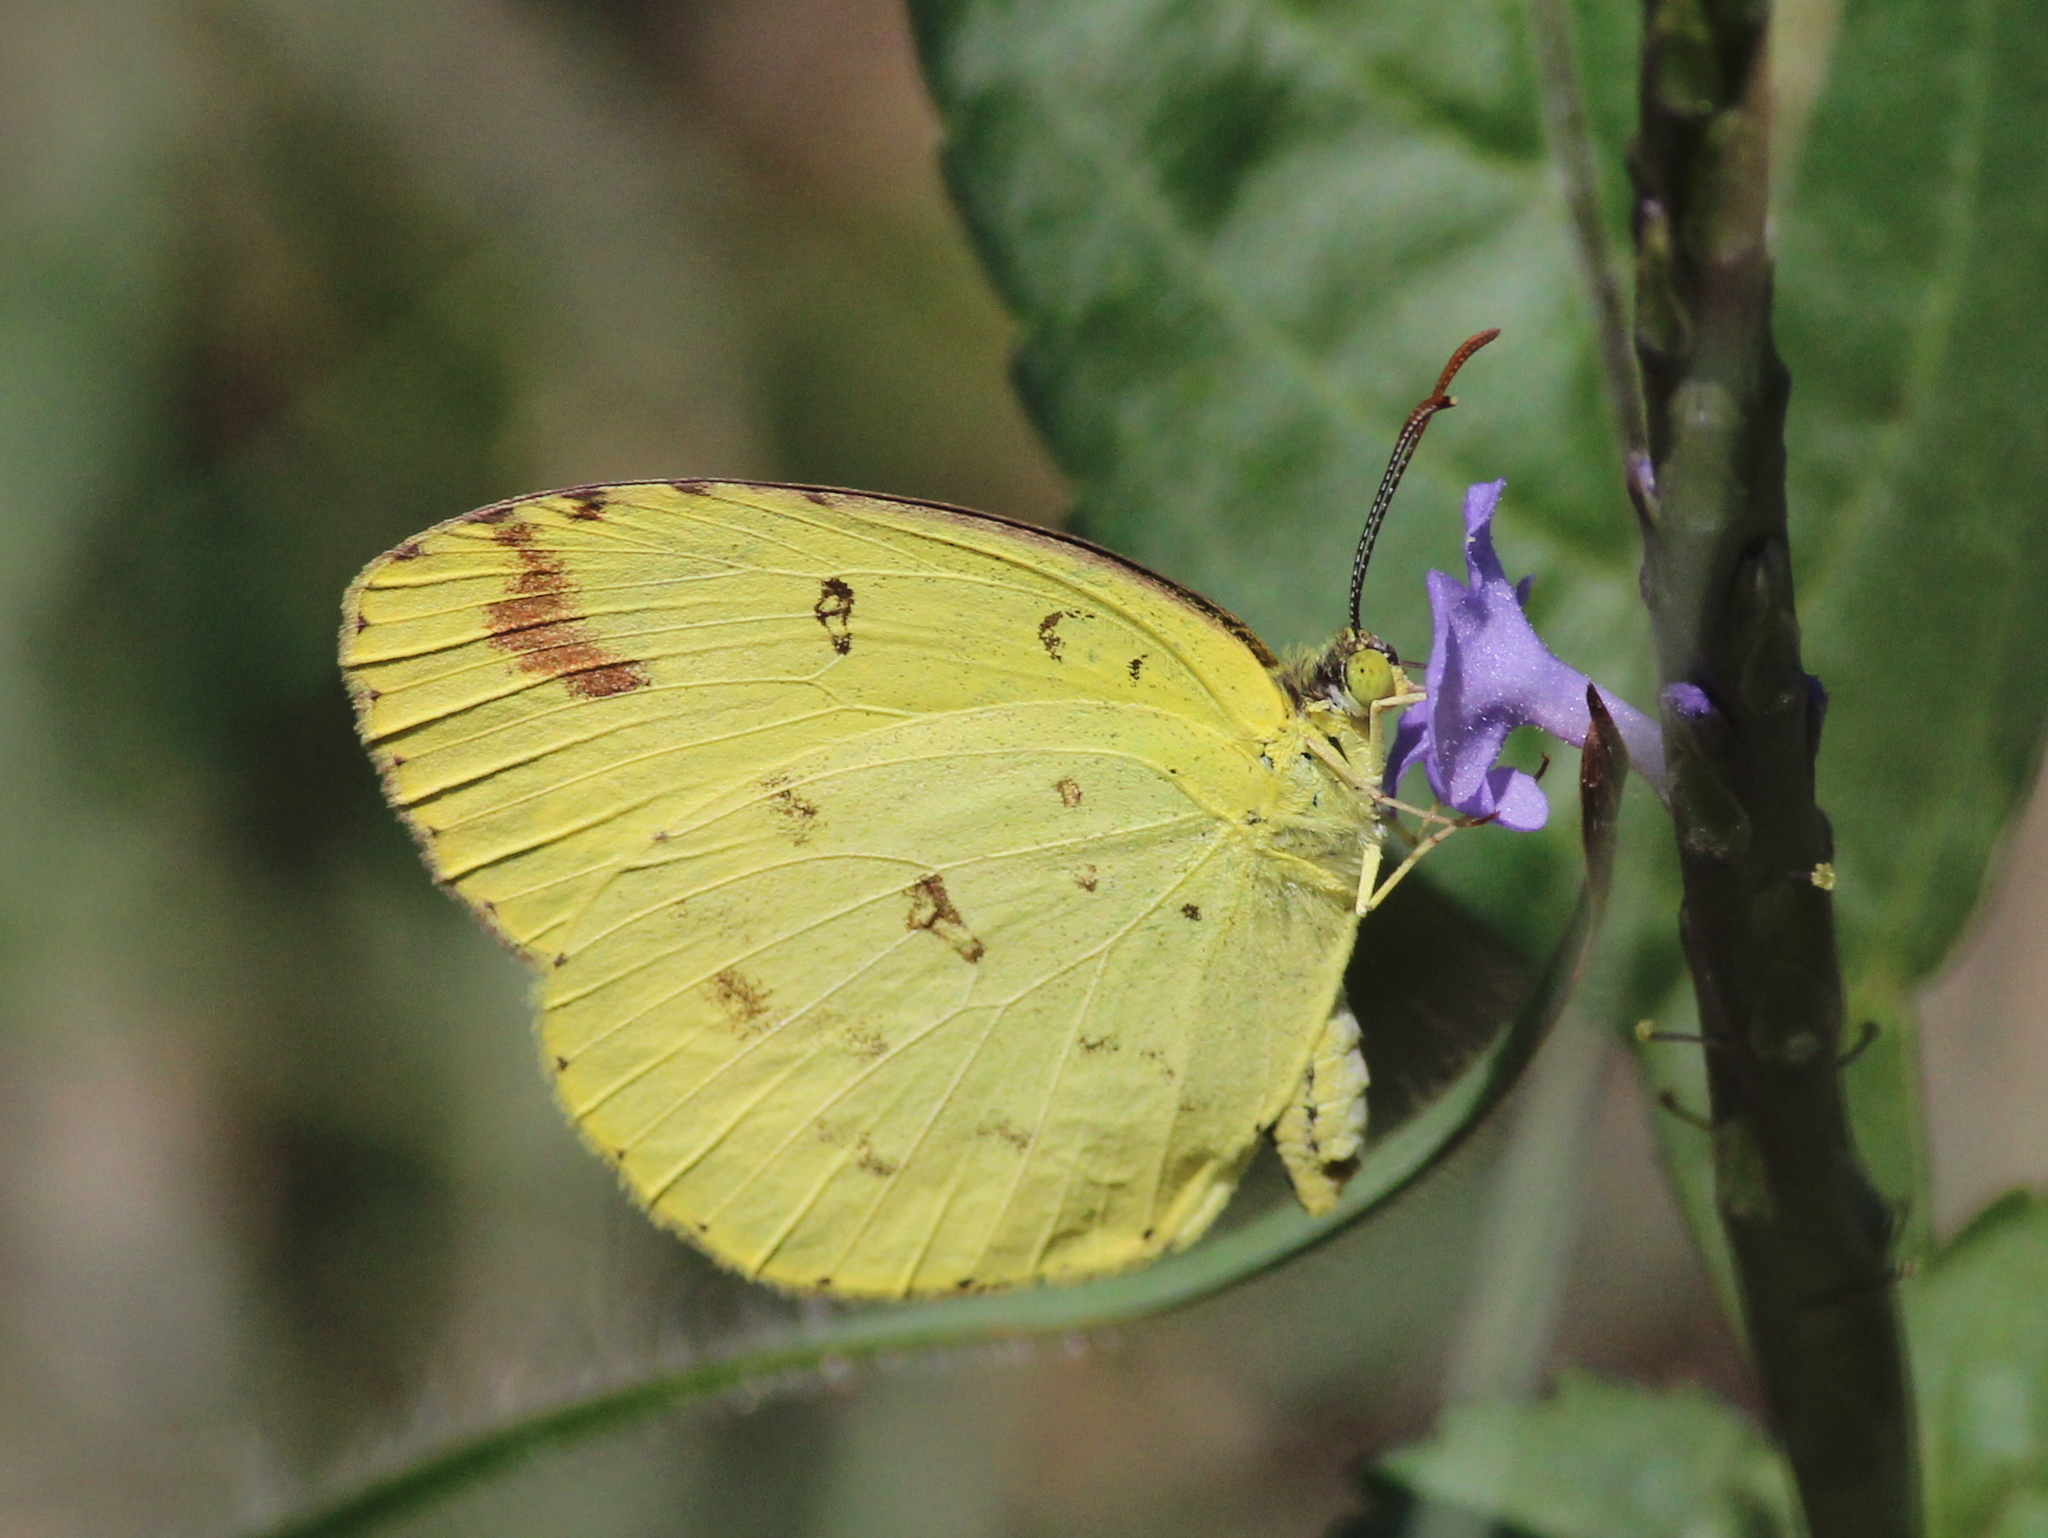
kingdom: Animalia
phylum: Arthropoda
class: Insecta
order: Lepidoptera
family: Pieridae
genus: Eurema
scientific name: Eurema hecabe
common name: Pale grass yellow
